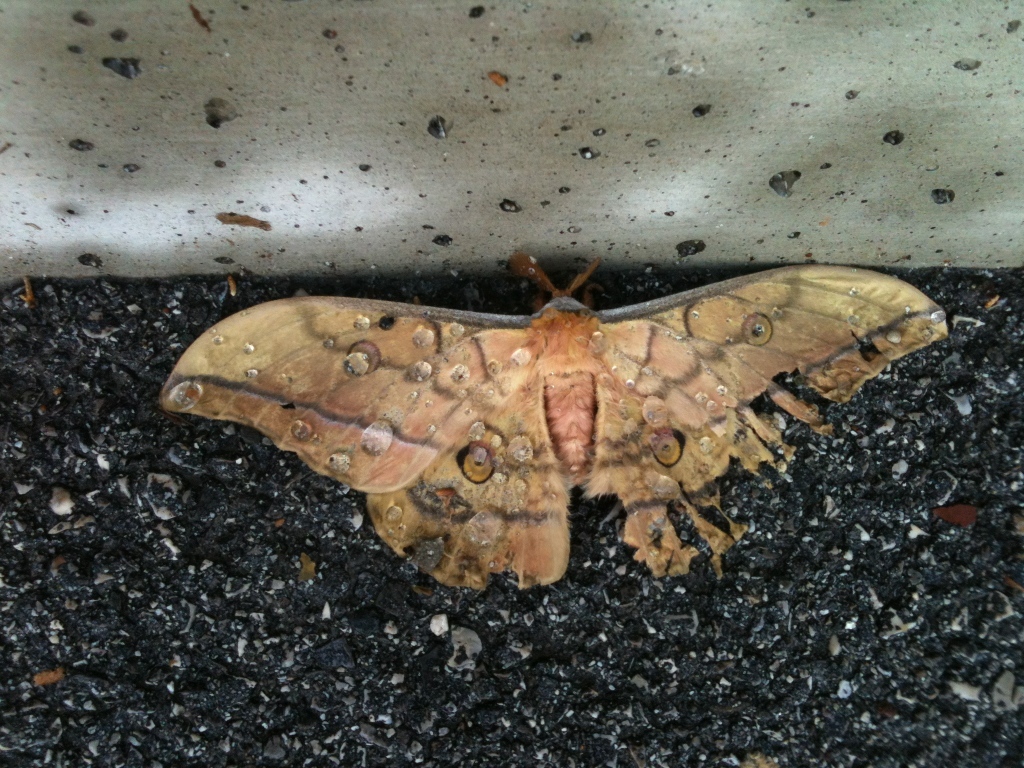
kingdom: Animalia
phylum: Arthropoda
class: Insecta
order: Lepidoptera
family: Saturniidae
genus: Antheraea
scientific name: Antheraea yamamai
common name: Japanese oak silk moth
